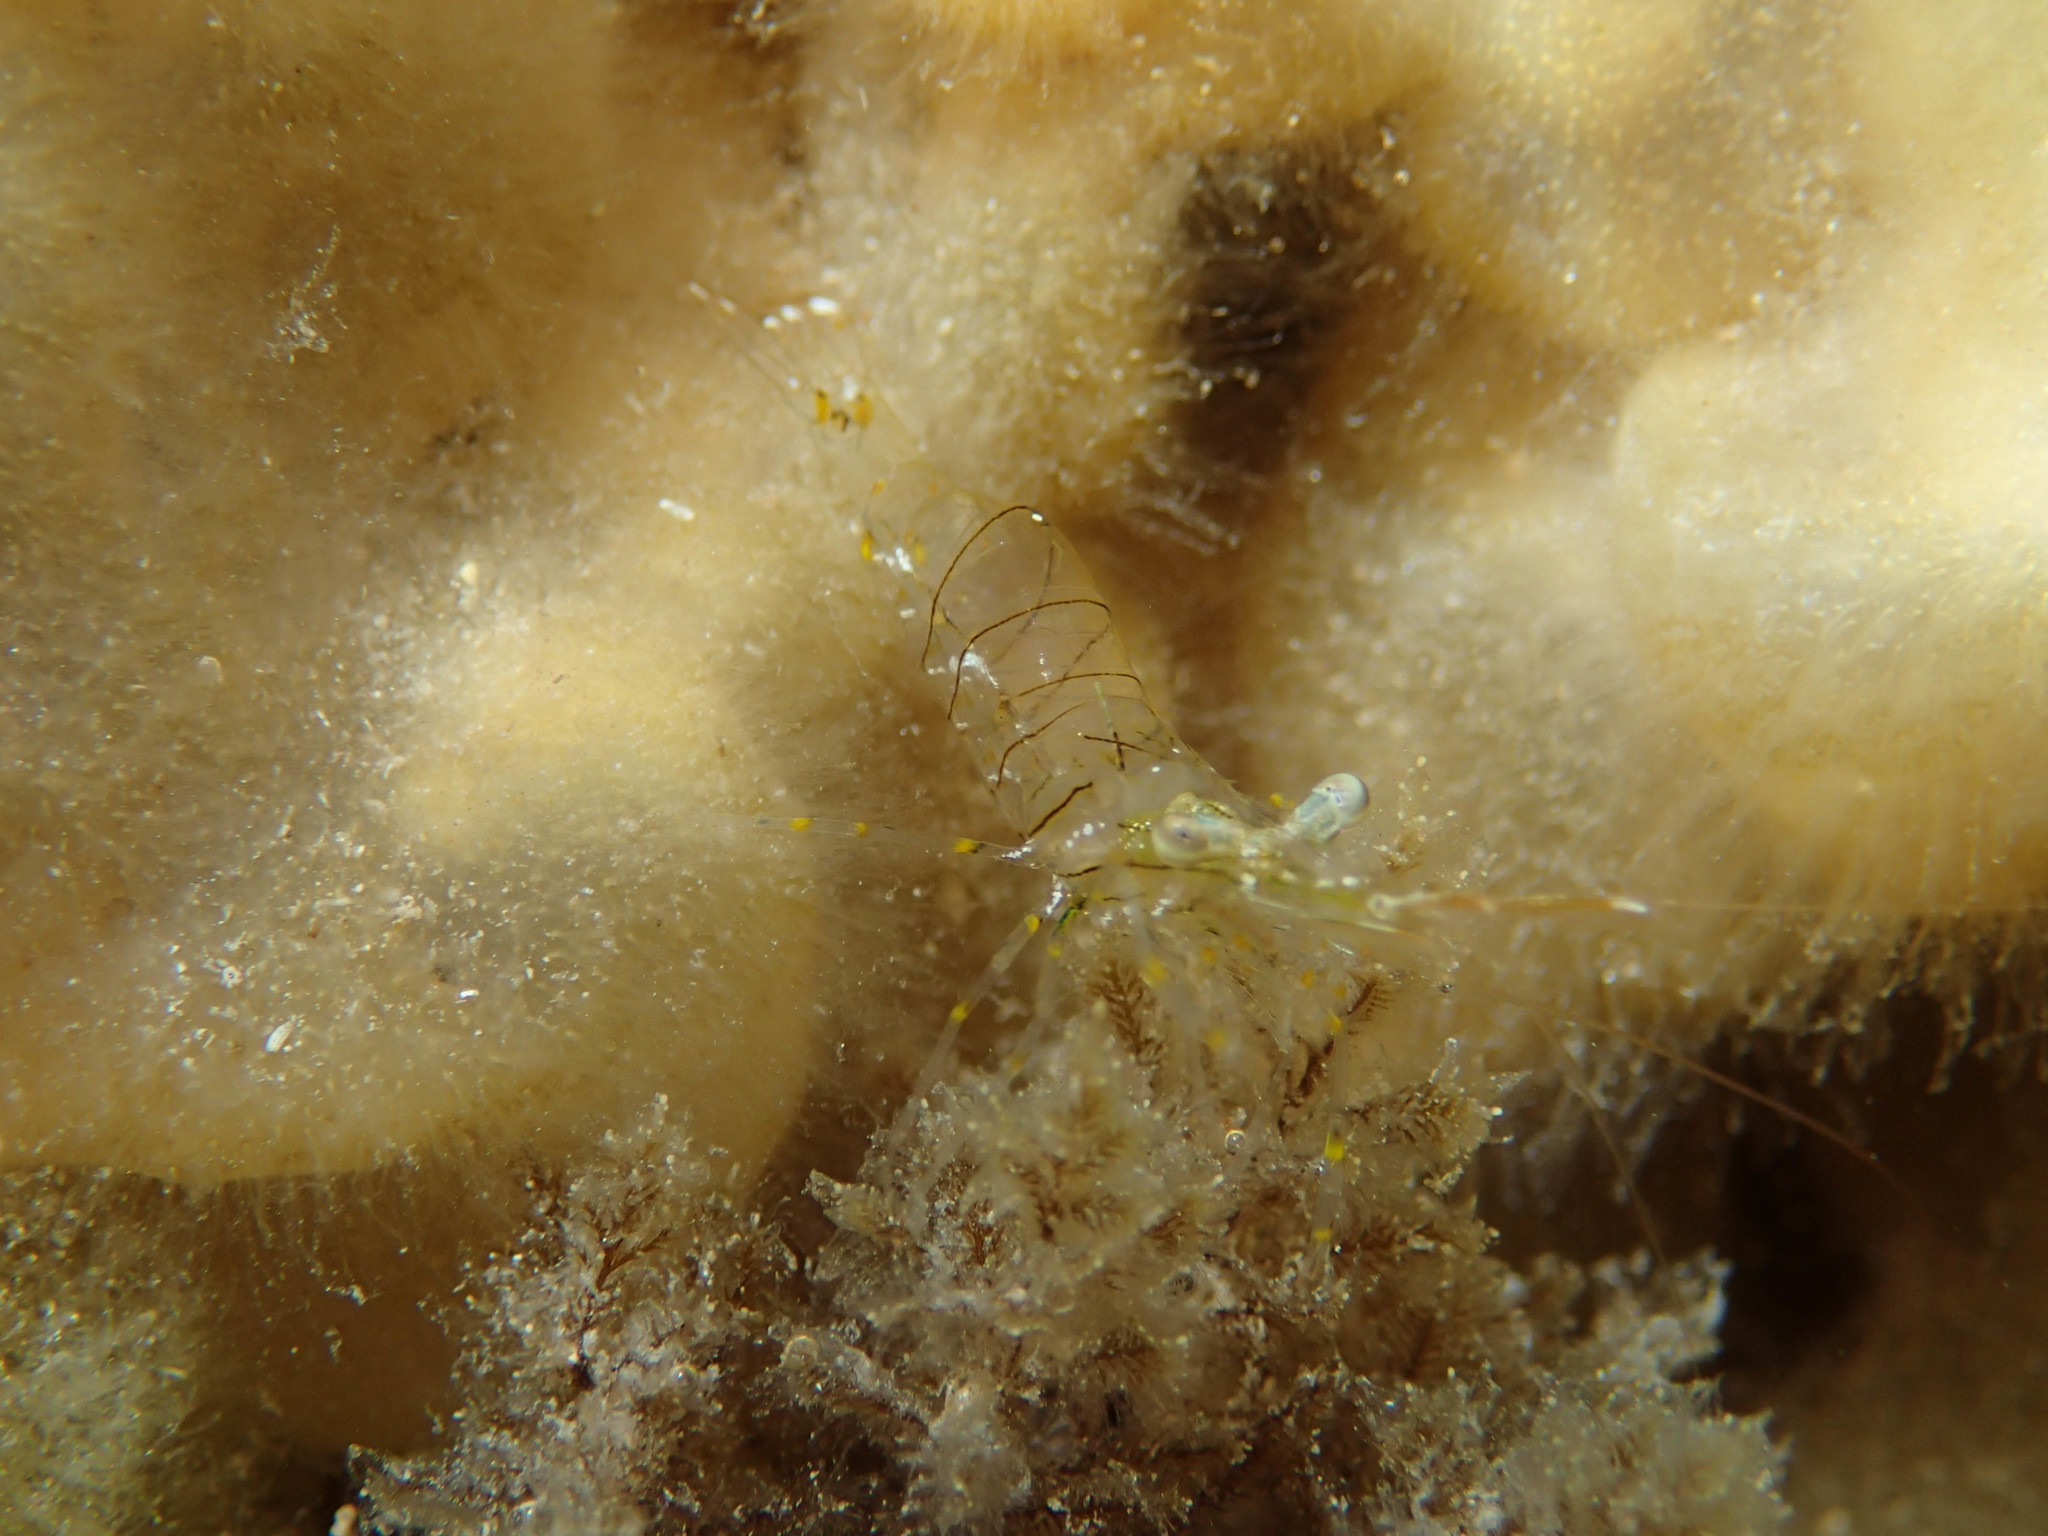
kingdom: Animalia
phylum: Arthropoda
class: Malacostraca
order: Decapoda
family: Palaemonidae
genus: Palaemon
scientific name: Palaemon elegans
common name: Grass prawm
